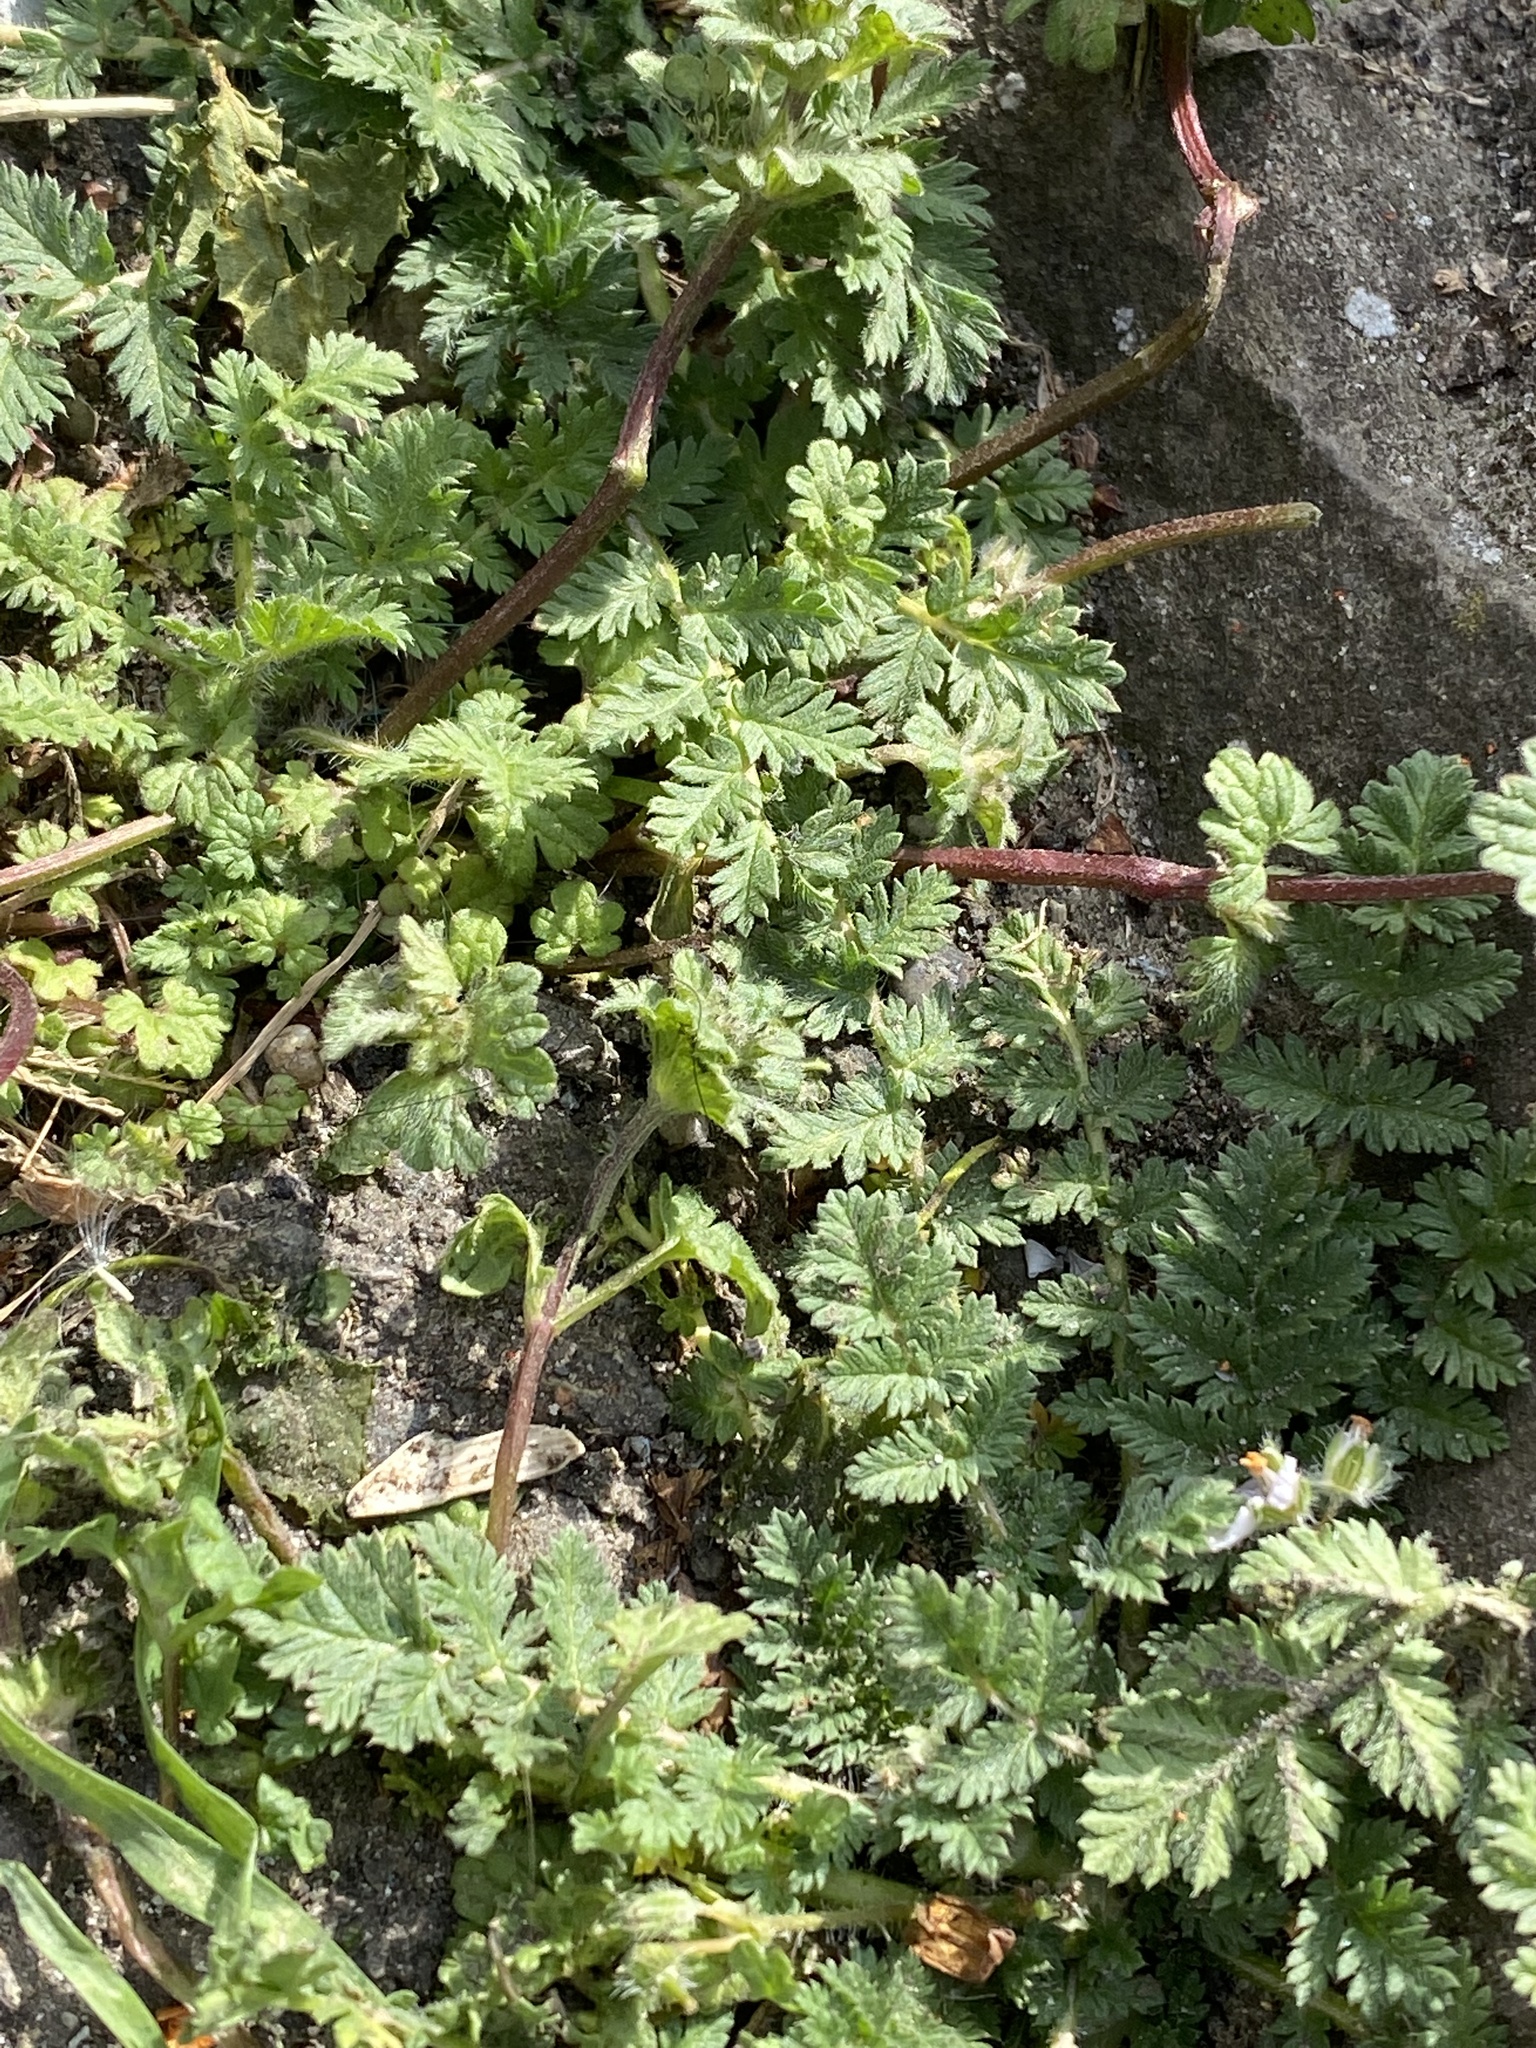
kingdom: Plantae
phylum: Tracheophyta
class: Magnoliopsida
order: Geraniales
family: Geraniaceae
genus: Erodium
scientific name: Erodium cicutarium
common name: Common stork's-bill
